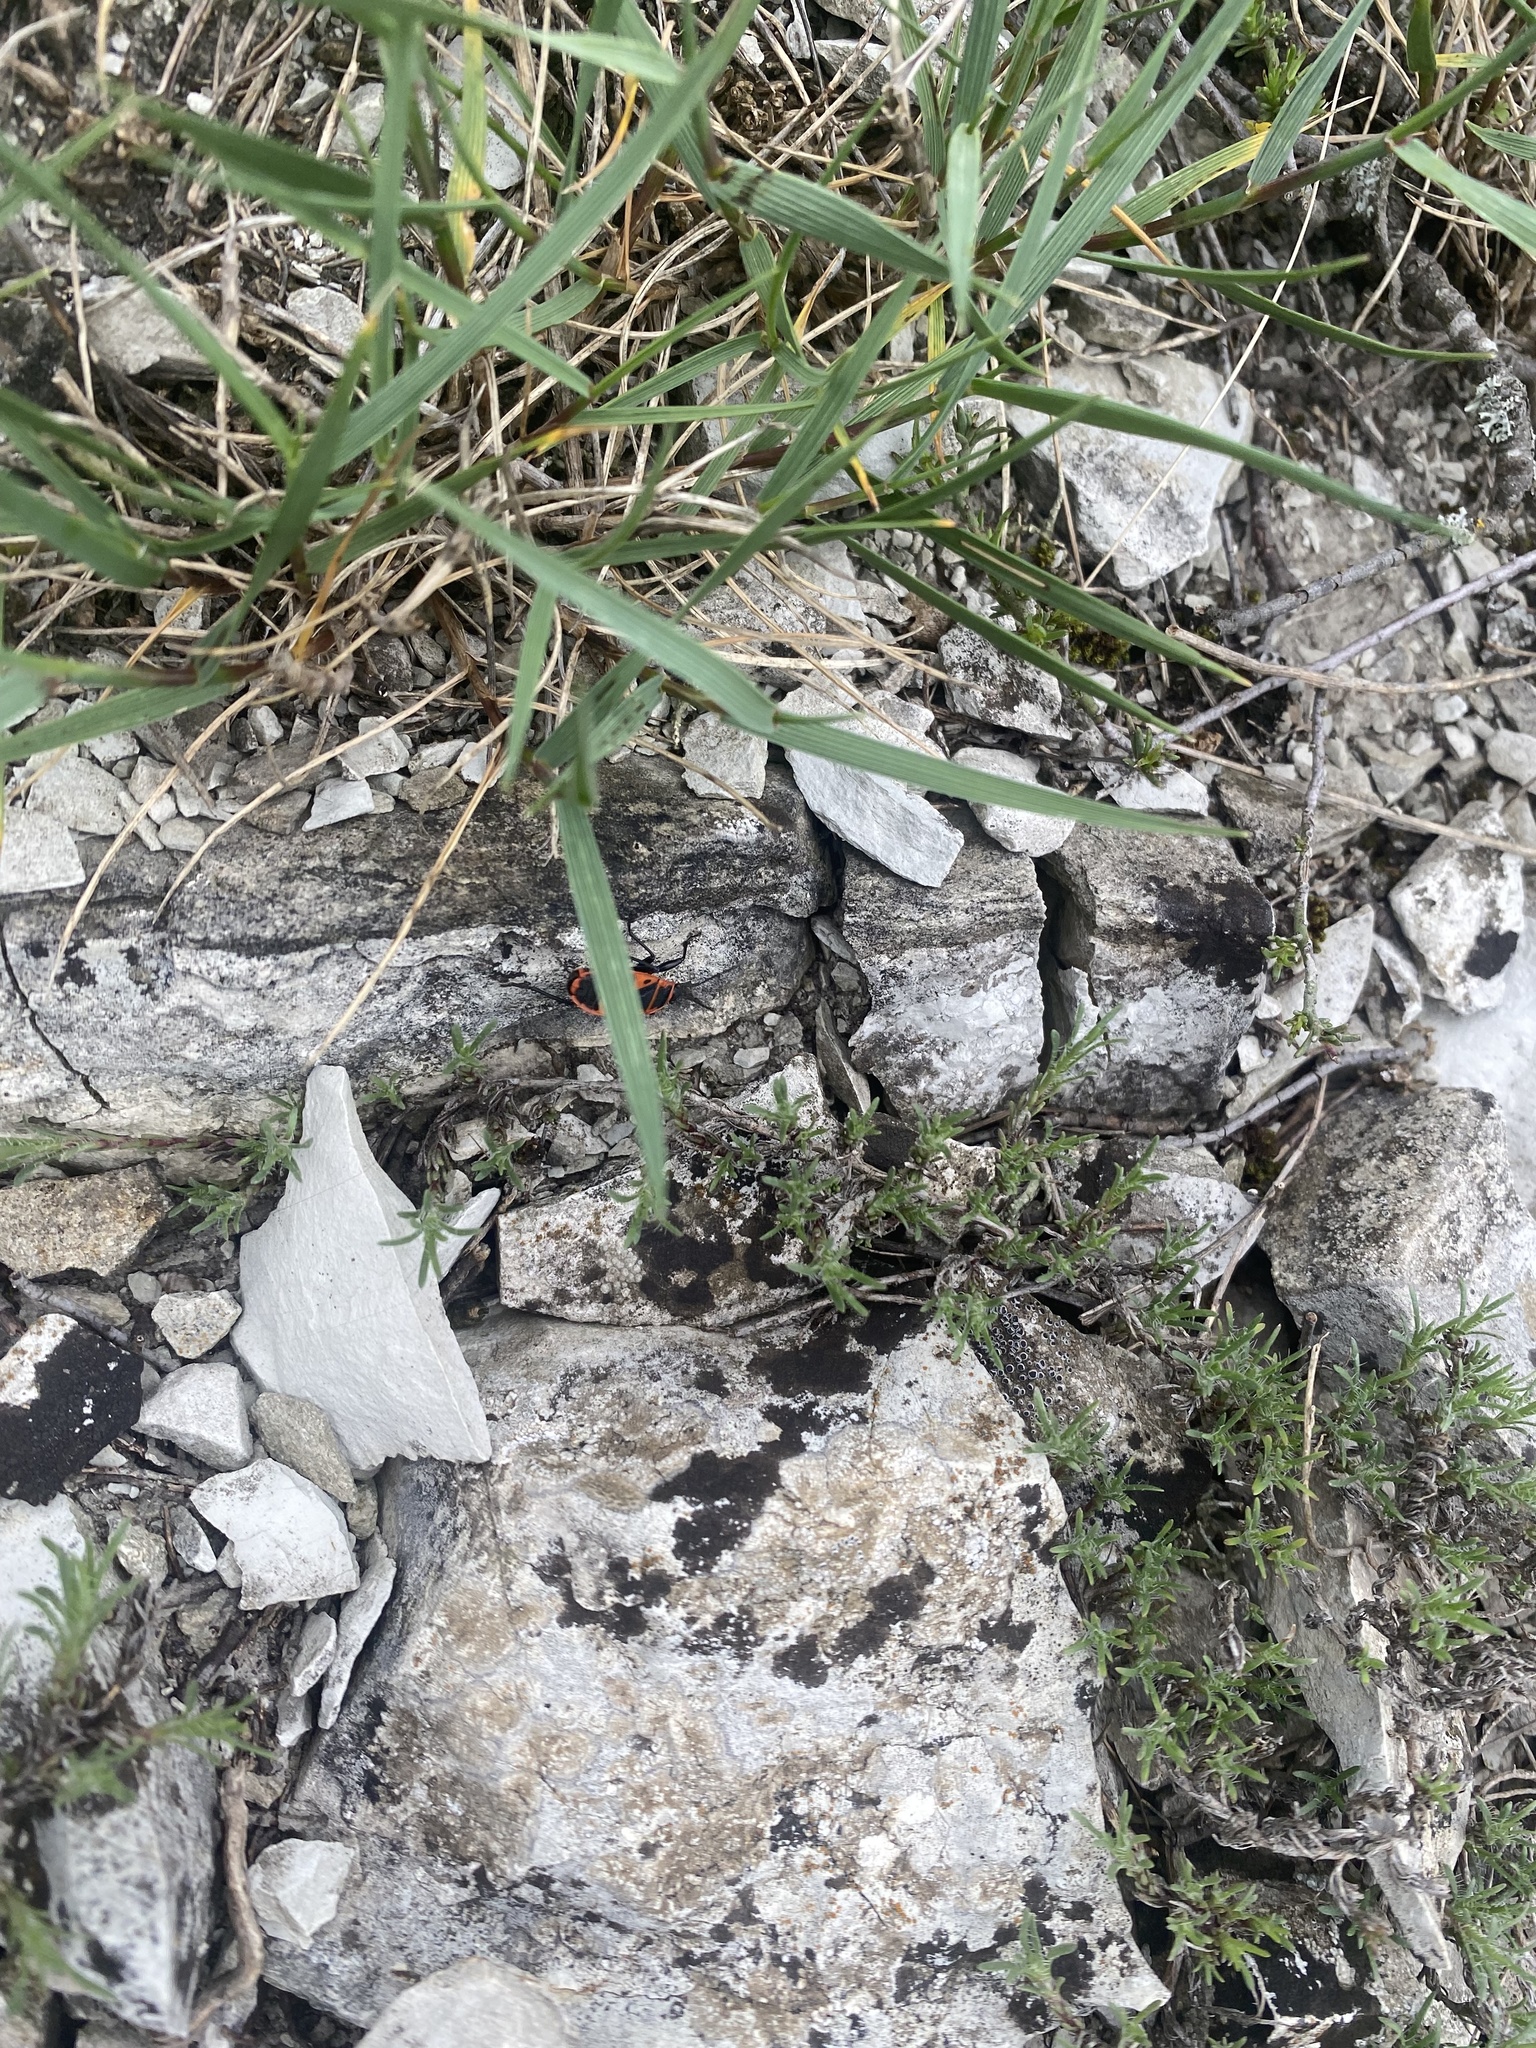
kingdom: Animalia
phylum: Arthropoda
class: Insecta
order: Hemiptera
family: Pyrrhocoridae
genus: Pyrrhocoris
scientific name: Pyrrhocoris apterus
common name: Firebug
